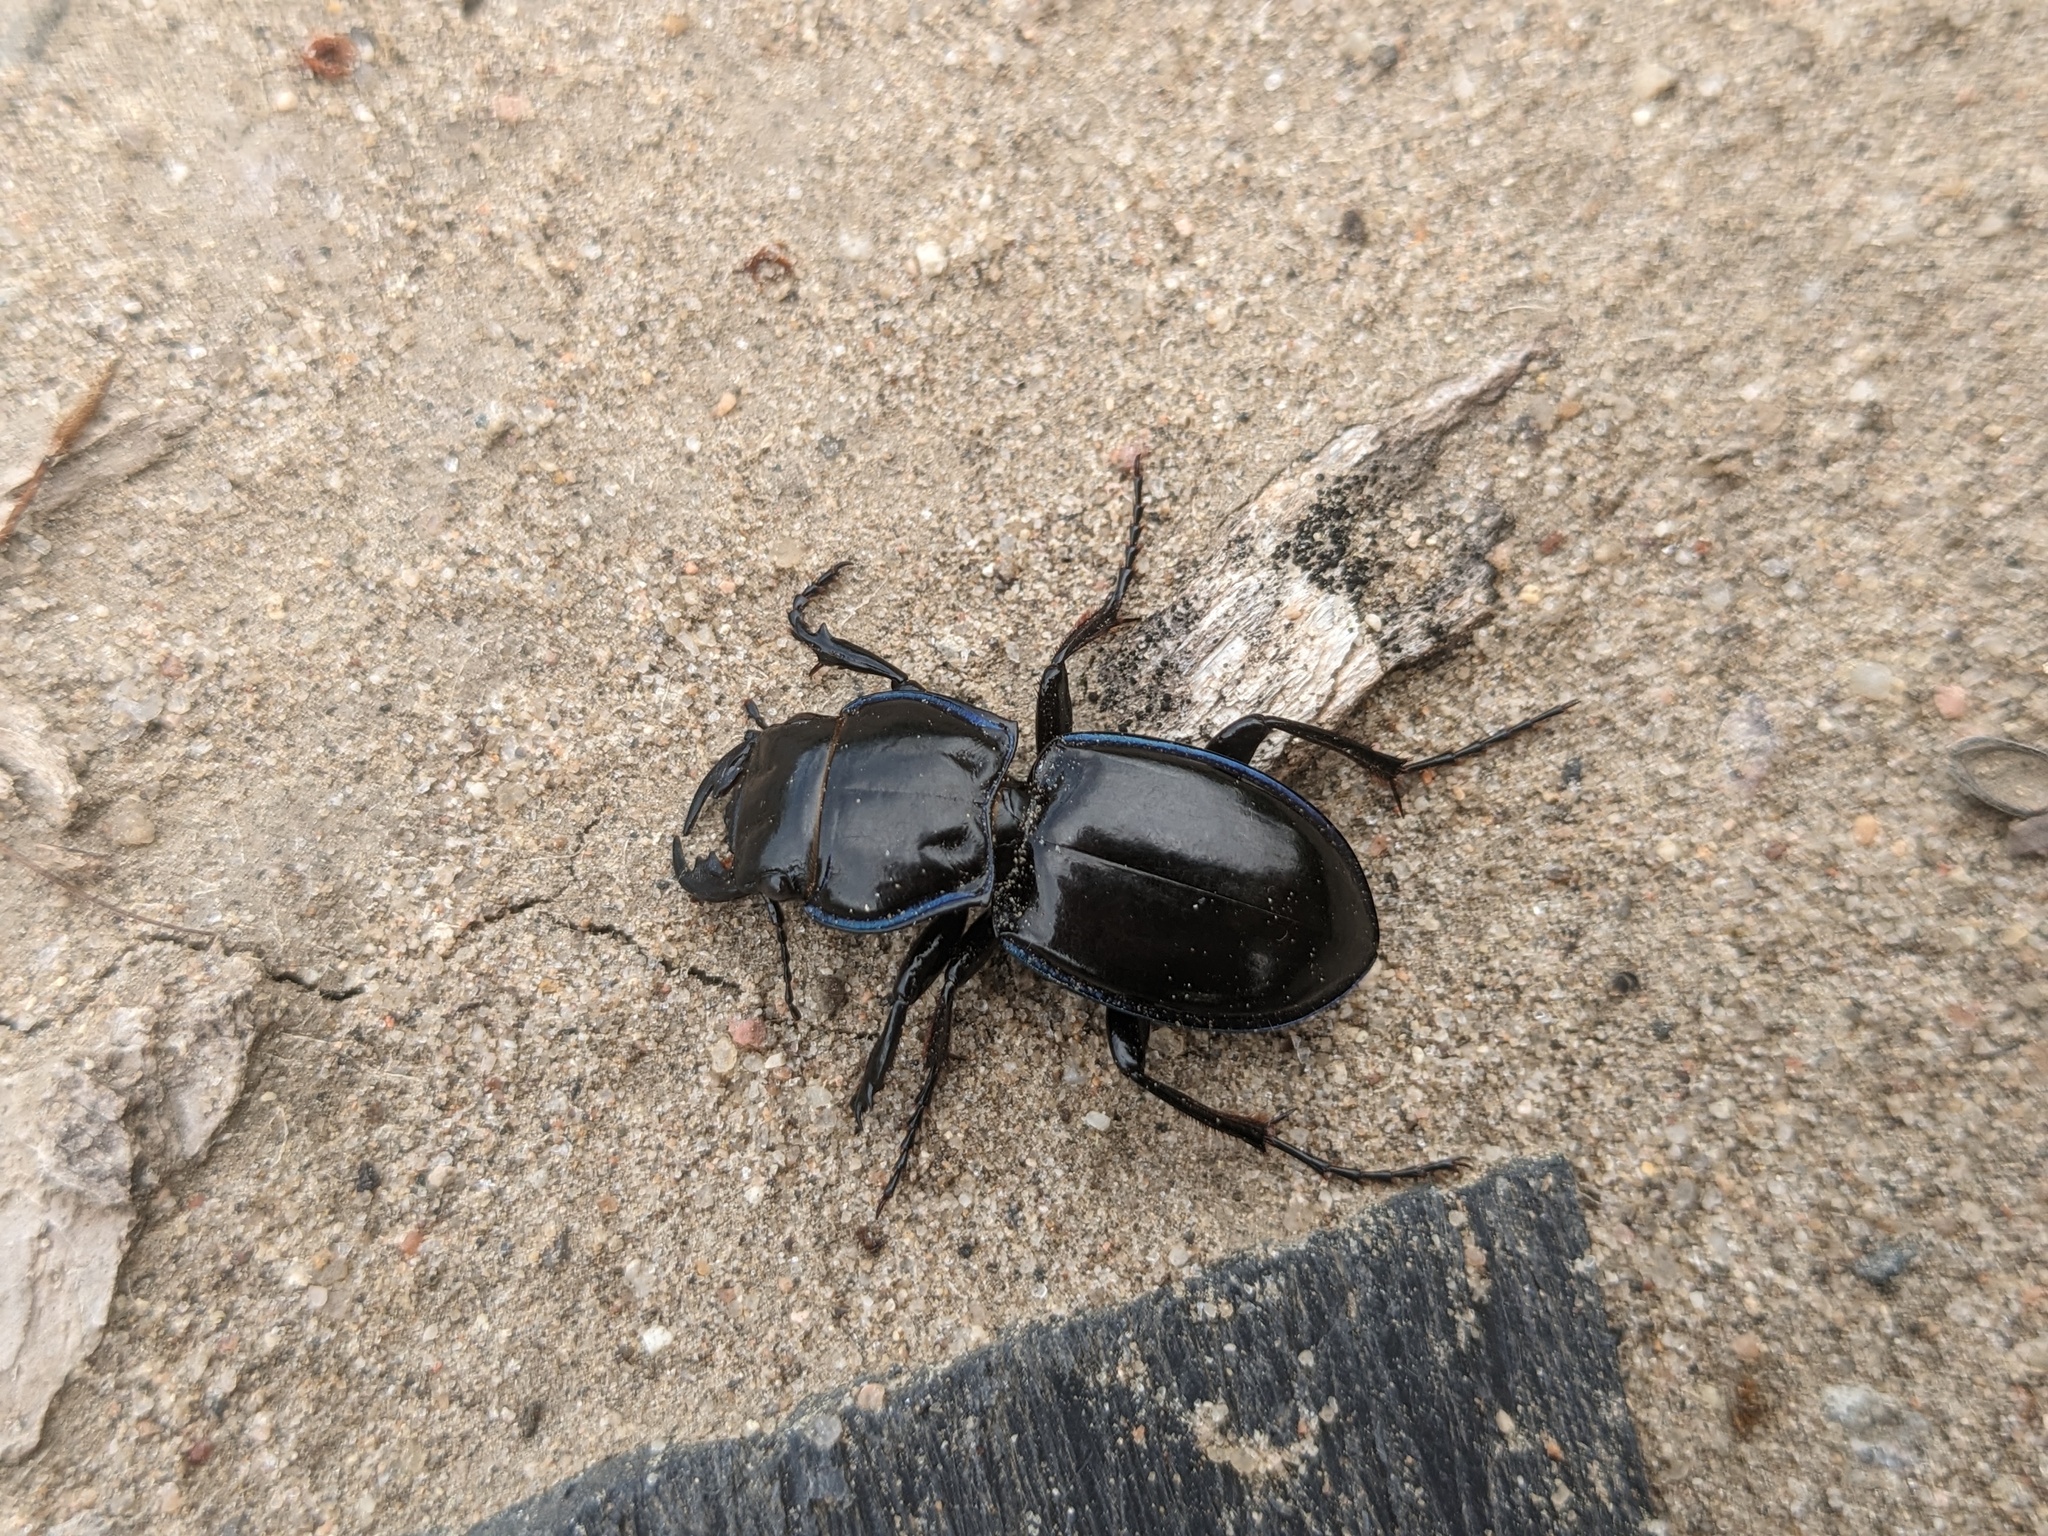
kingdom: Animalia
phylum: Arthropoda
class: Insecta
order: Coleoptera
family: Carabidae
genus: Pasimachus
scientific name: Pasimachus elongatus
